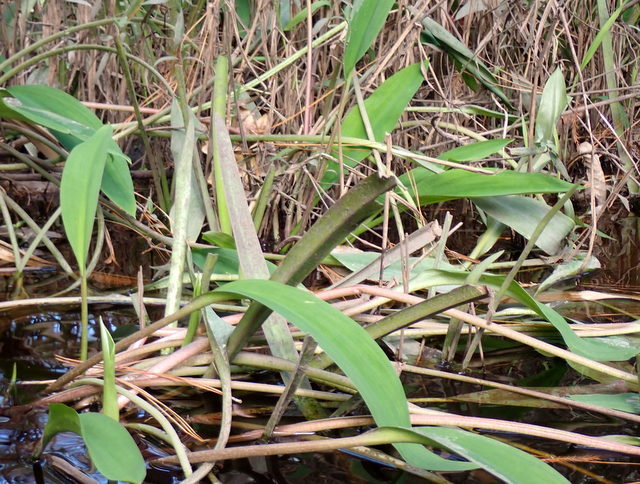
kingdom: Plantae
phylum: Tracheophyta
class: Liliopsida
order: Alismatales
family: Araceae
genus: Orontium
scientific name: Orontium aquaticum
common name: Golden-club
